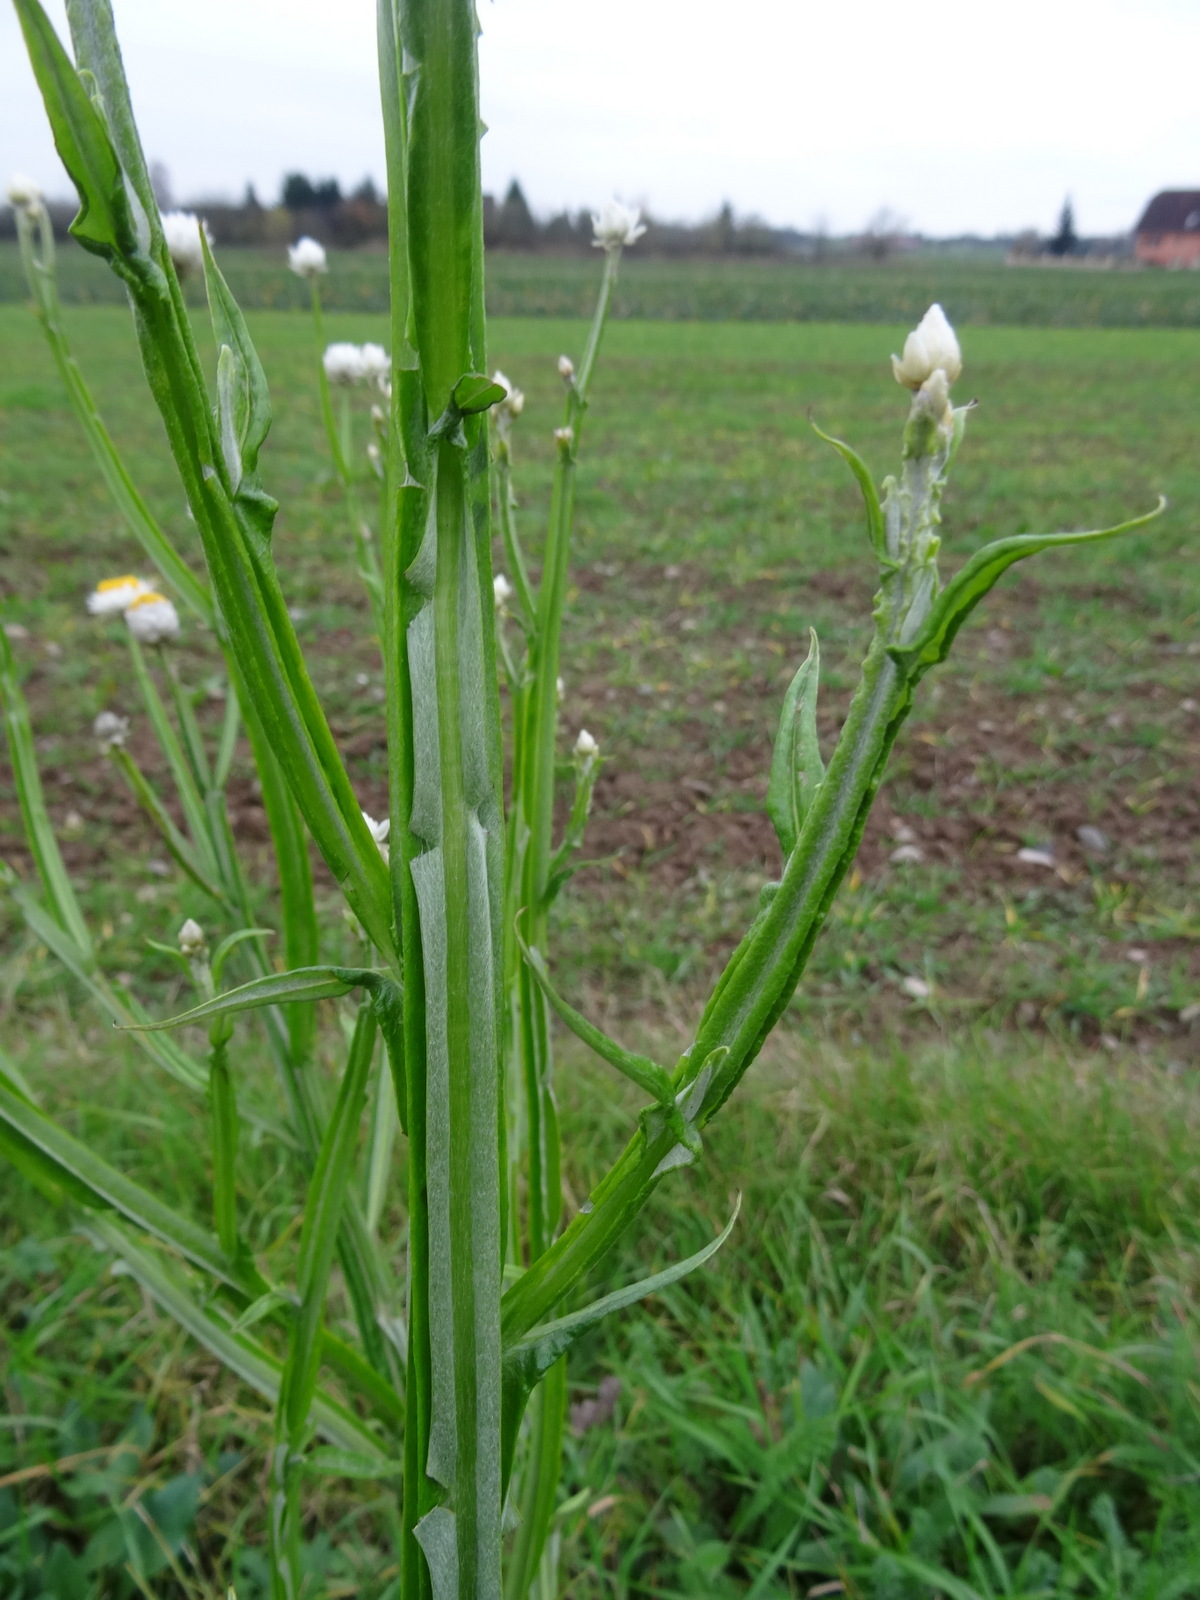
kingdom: Plantae
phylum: Tracheophyta
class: Magnoliopsida
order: Asterales
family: Asteraceae
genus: Ammobium
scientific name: Ammobium alatum
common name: Winged everlasting
